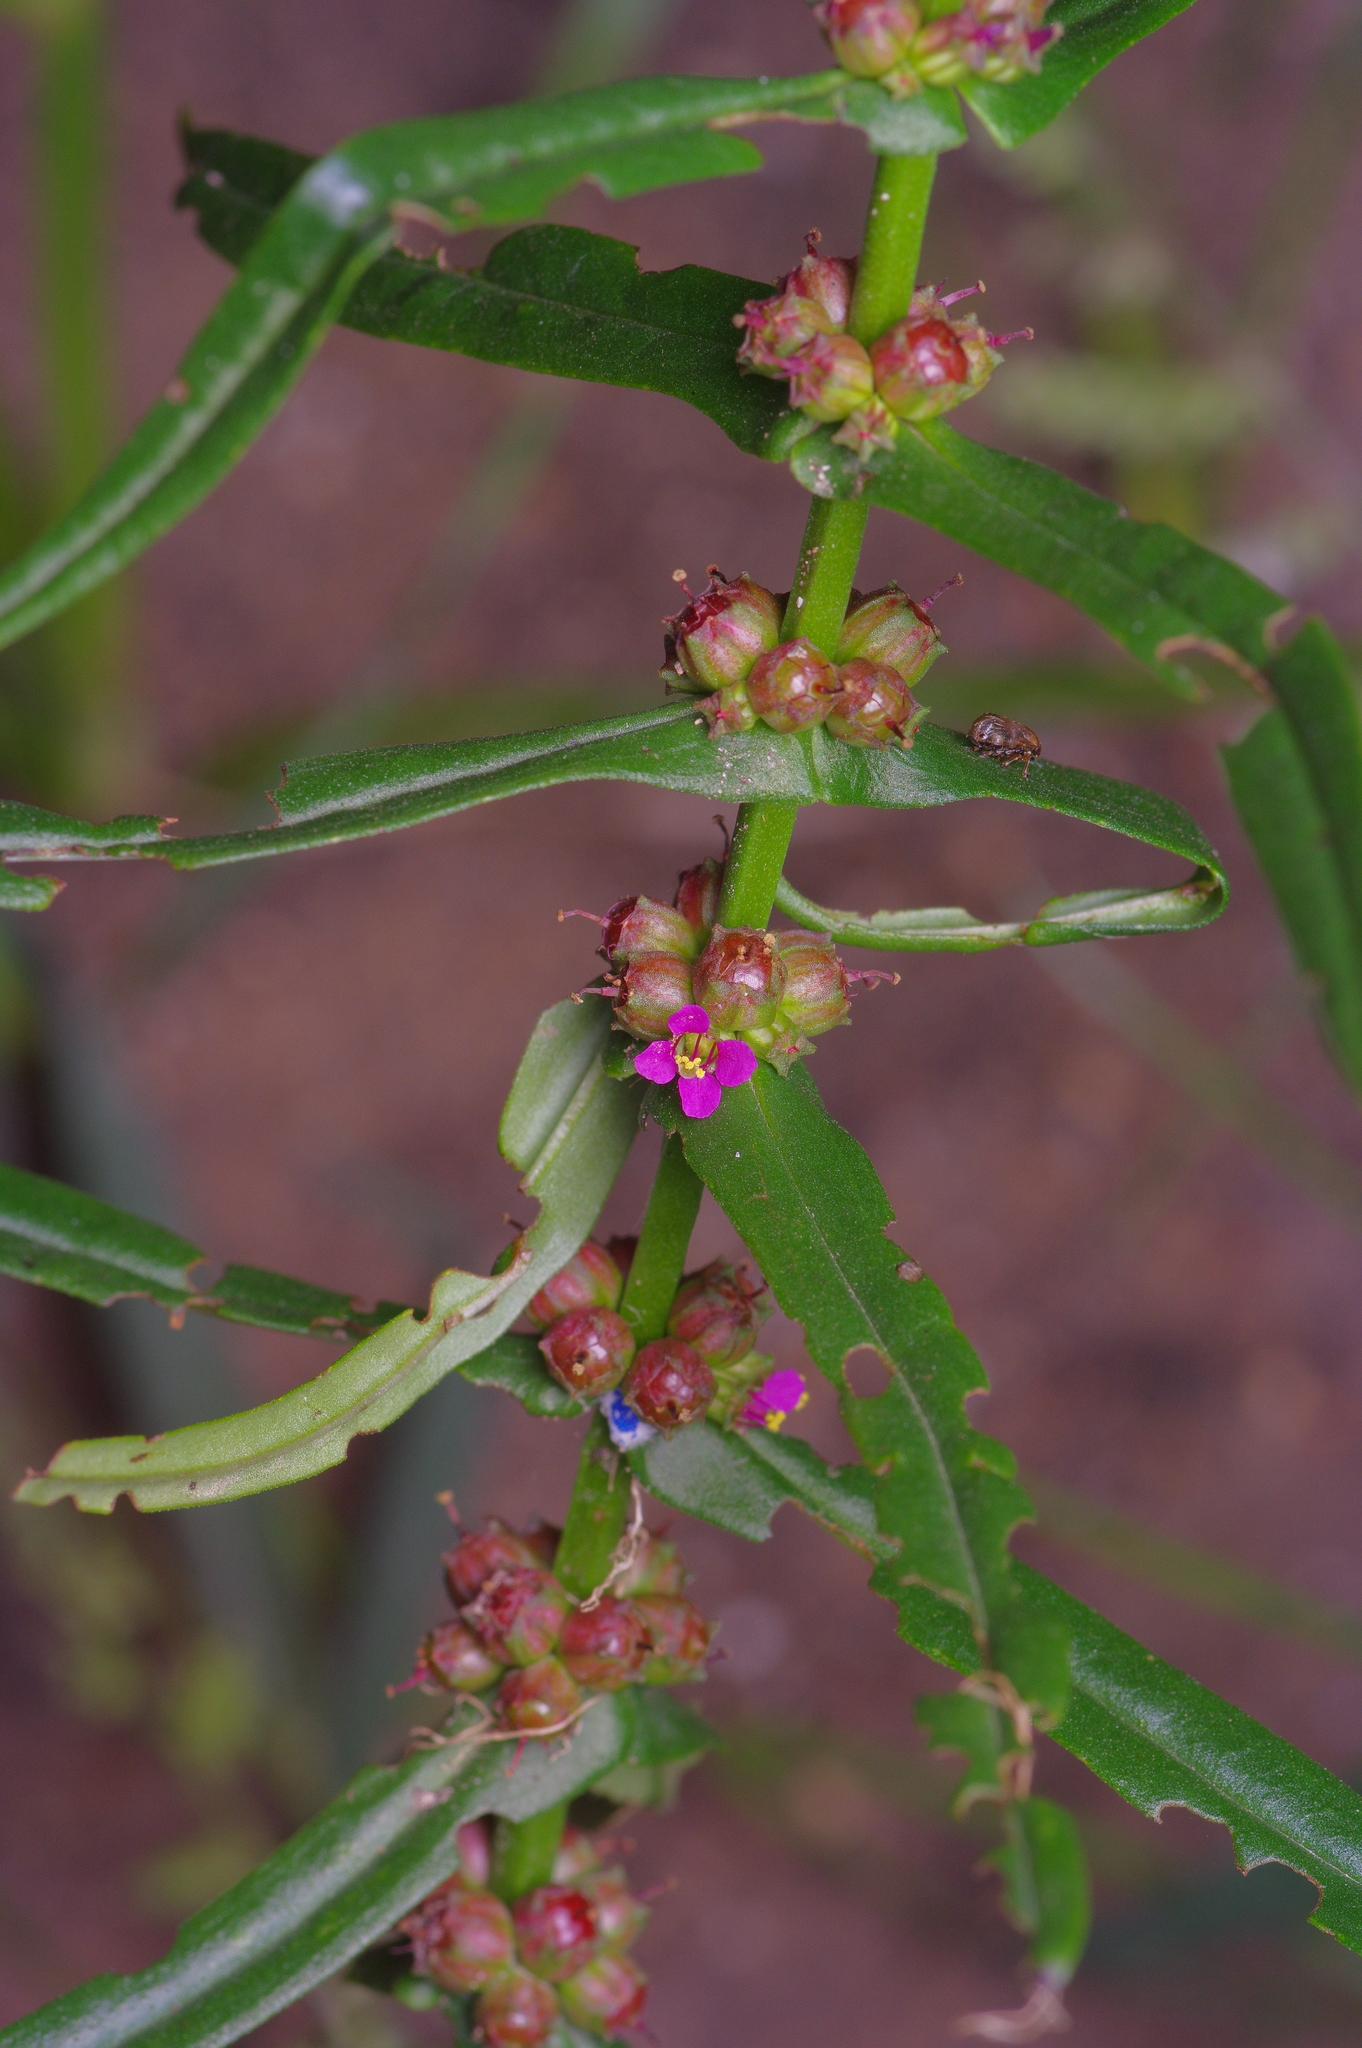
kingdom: Plantae
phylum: Tracheophyta
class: Magnoliopsida
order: Myrtales
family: Lythraceae
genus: Ammannia
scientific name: Ammannia coccinea
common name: Valley redstem
